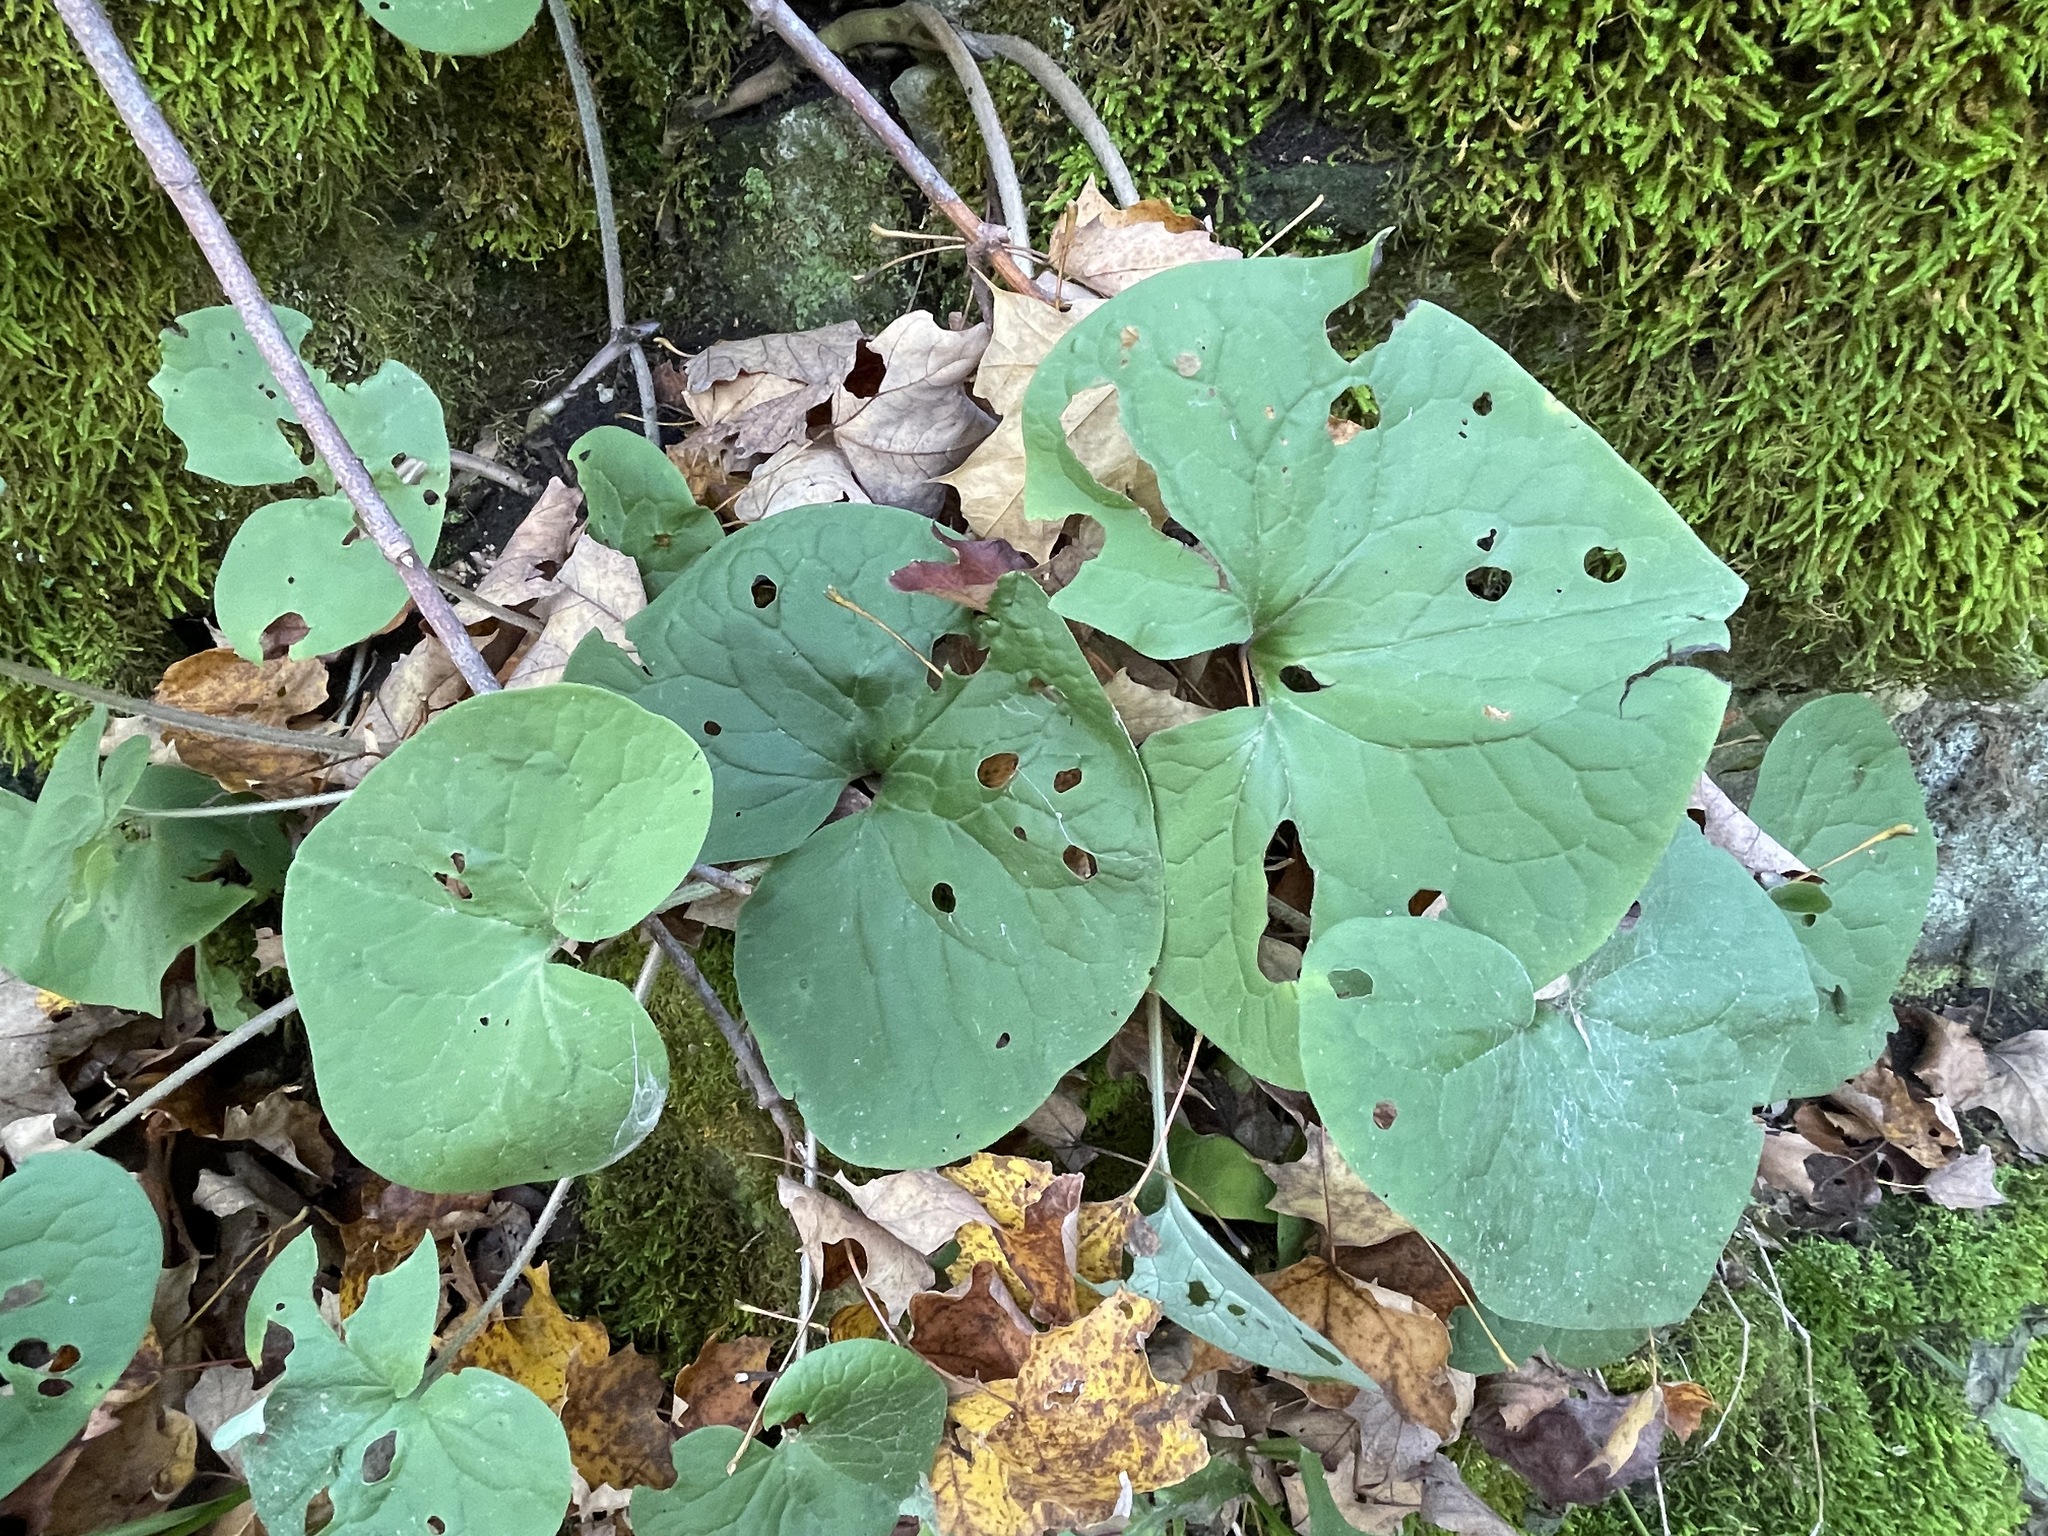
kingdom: Plantae
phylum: Tracheophyta
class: Magnoliopsida
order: Piperales
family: Aristolochiaceae
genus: Asarum
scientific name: Asarum canadense
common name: Wild ginger
